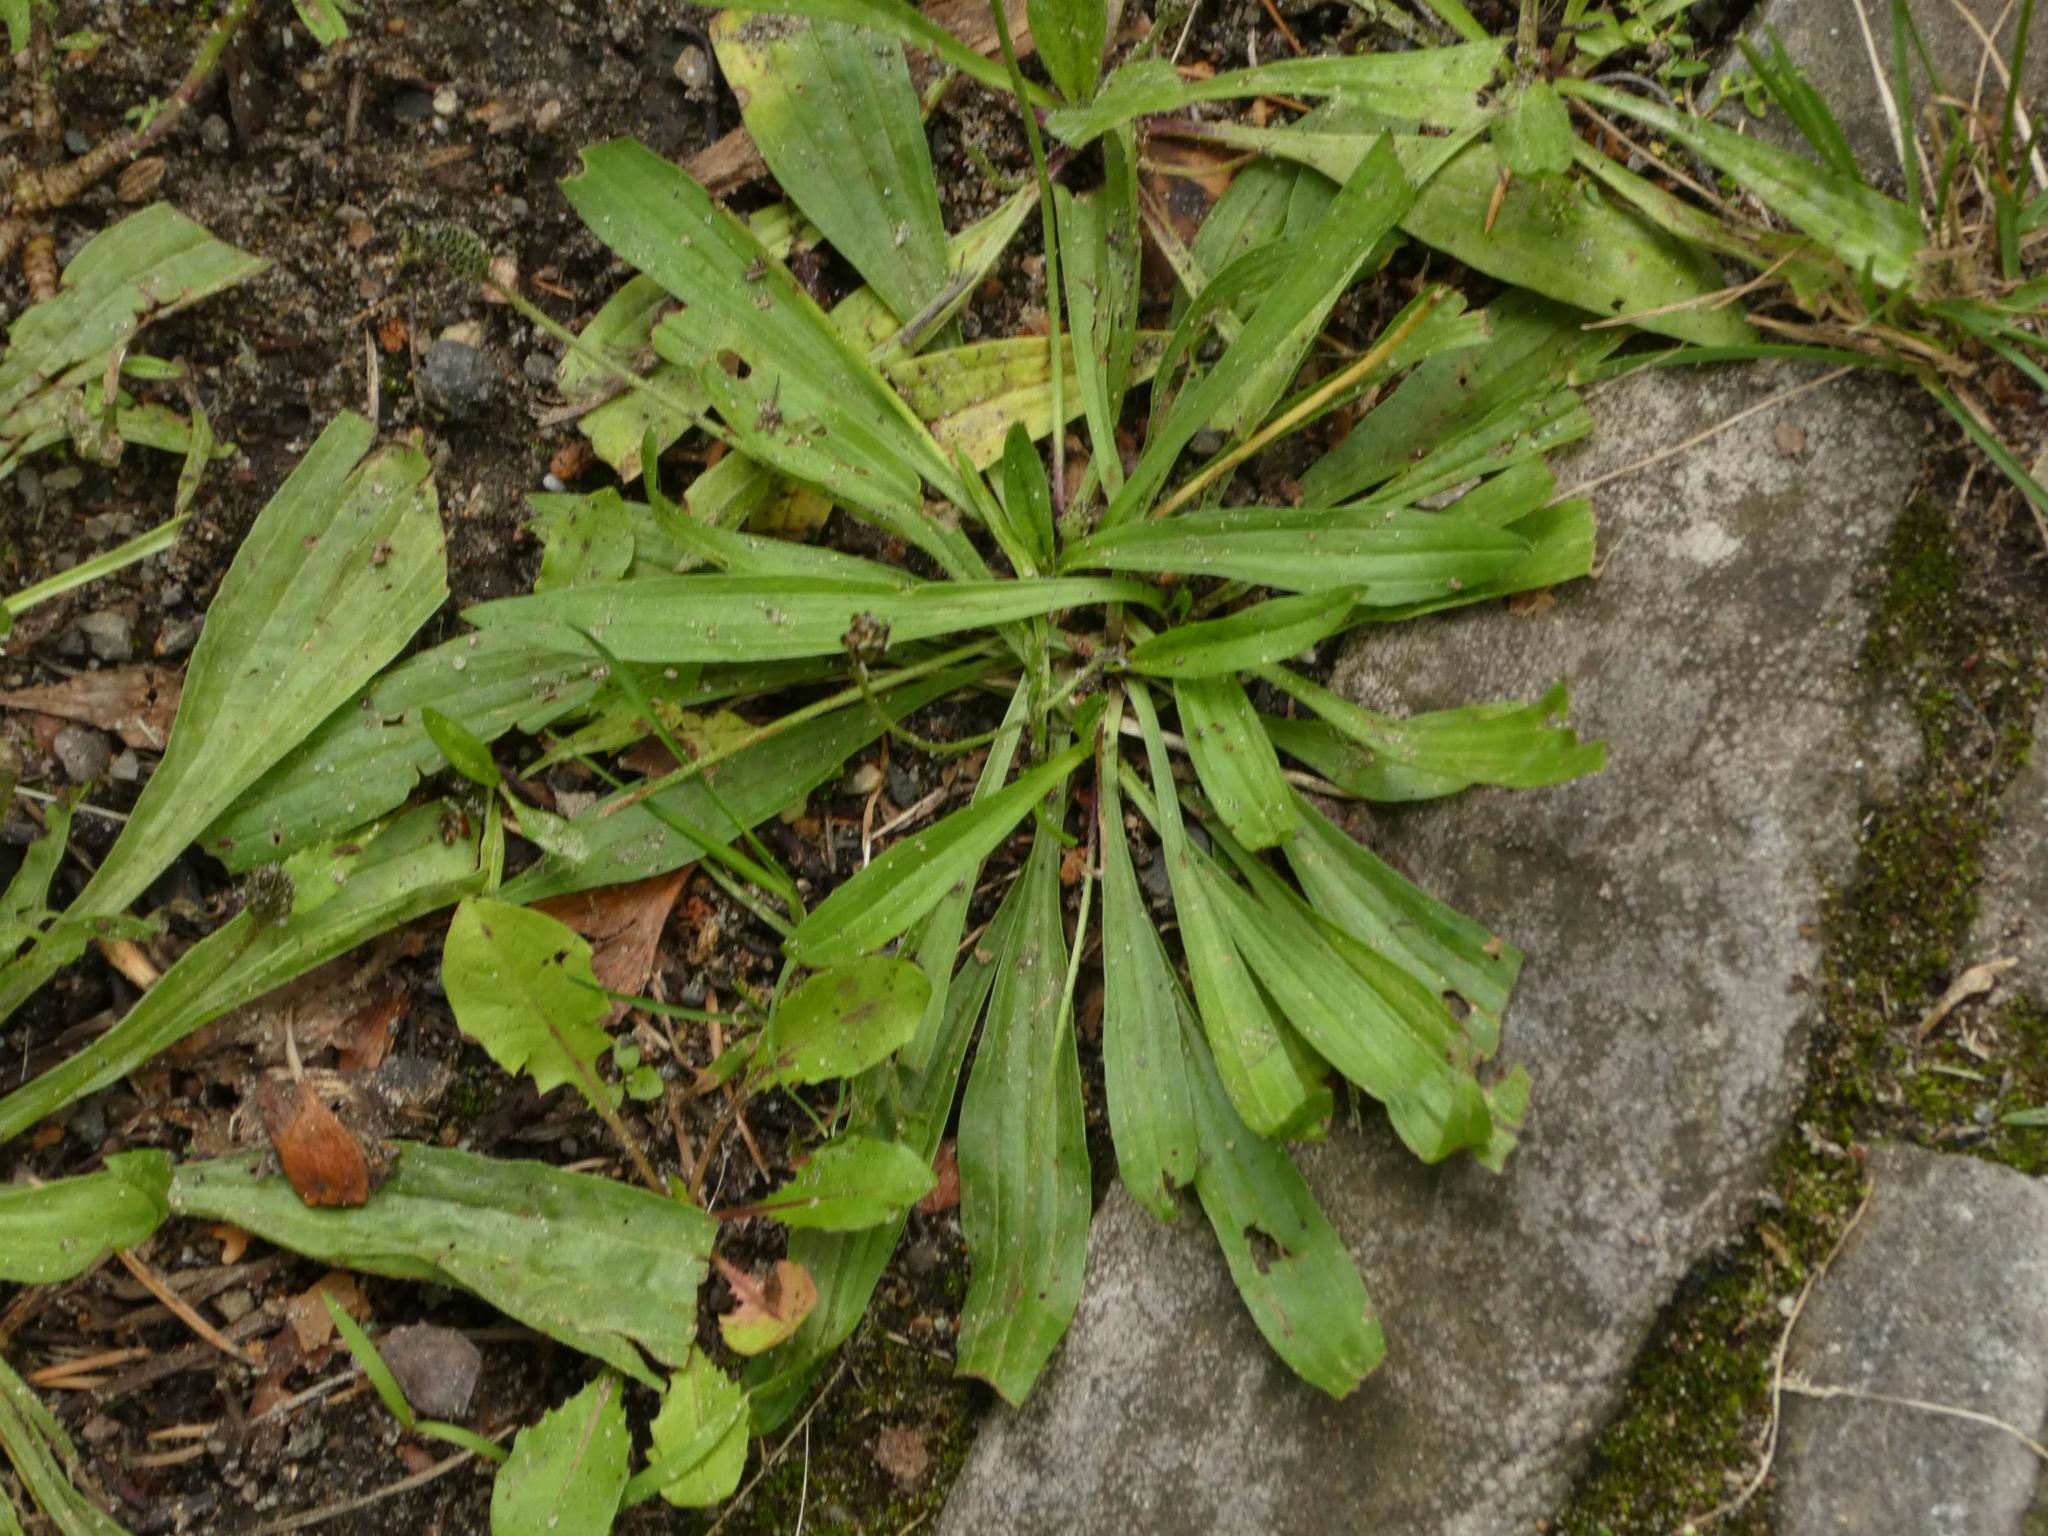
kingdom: Plantae
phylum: Tracheophyta
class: Magnoliopsida
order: Lamiales
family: Plantaginaceae
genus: Plantago
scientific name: Plantago lanceolata
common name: Ribwort plantain
